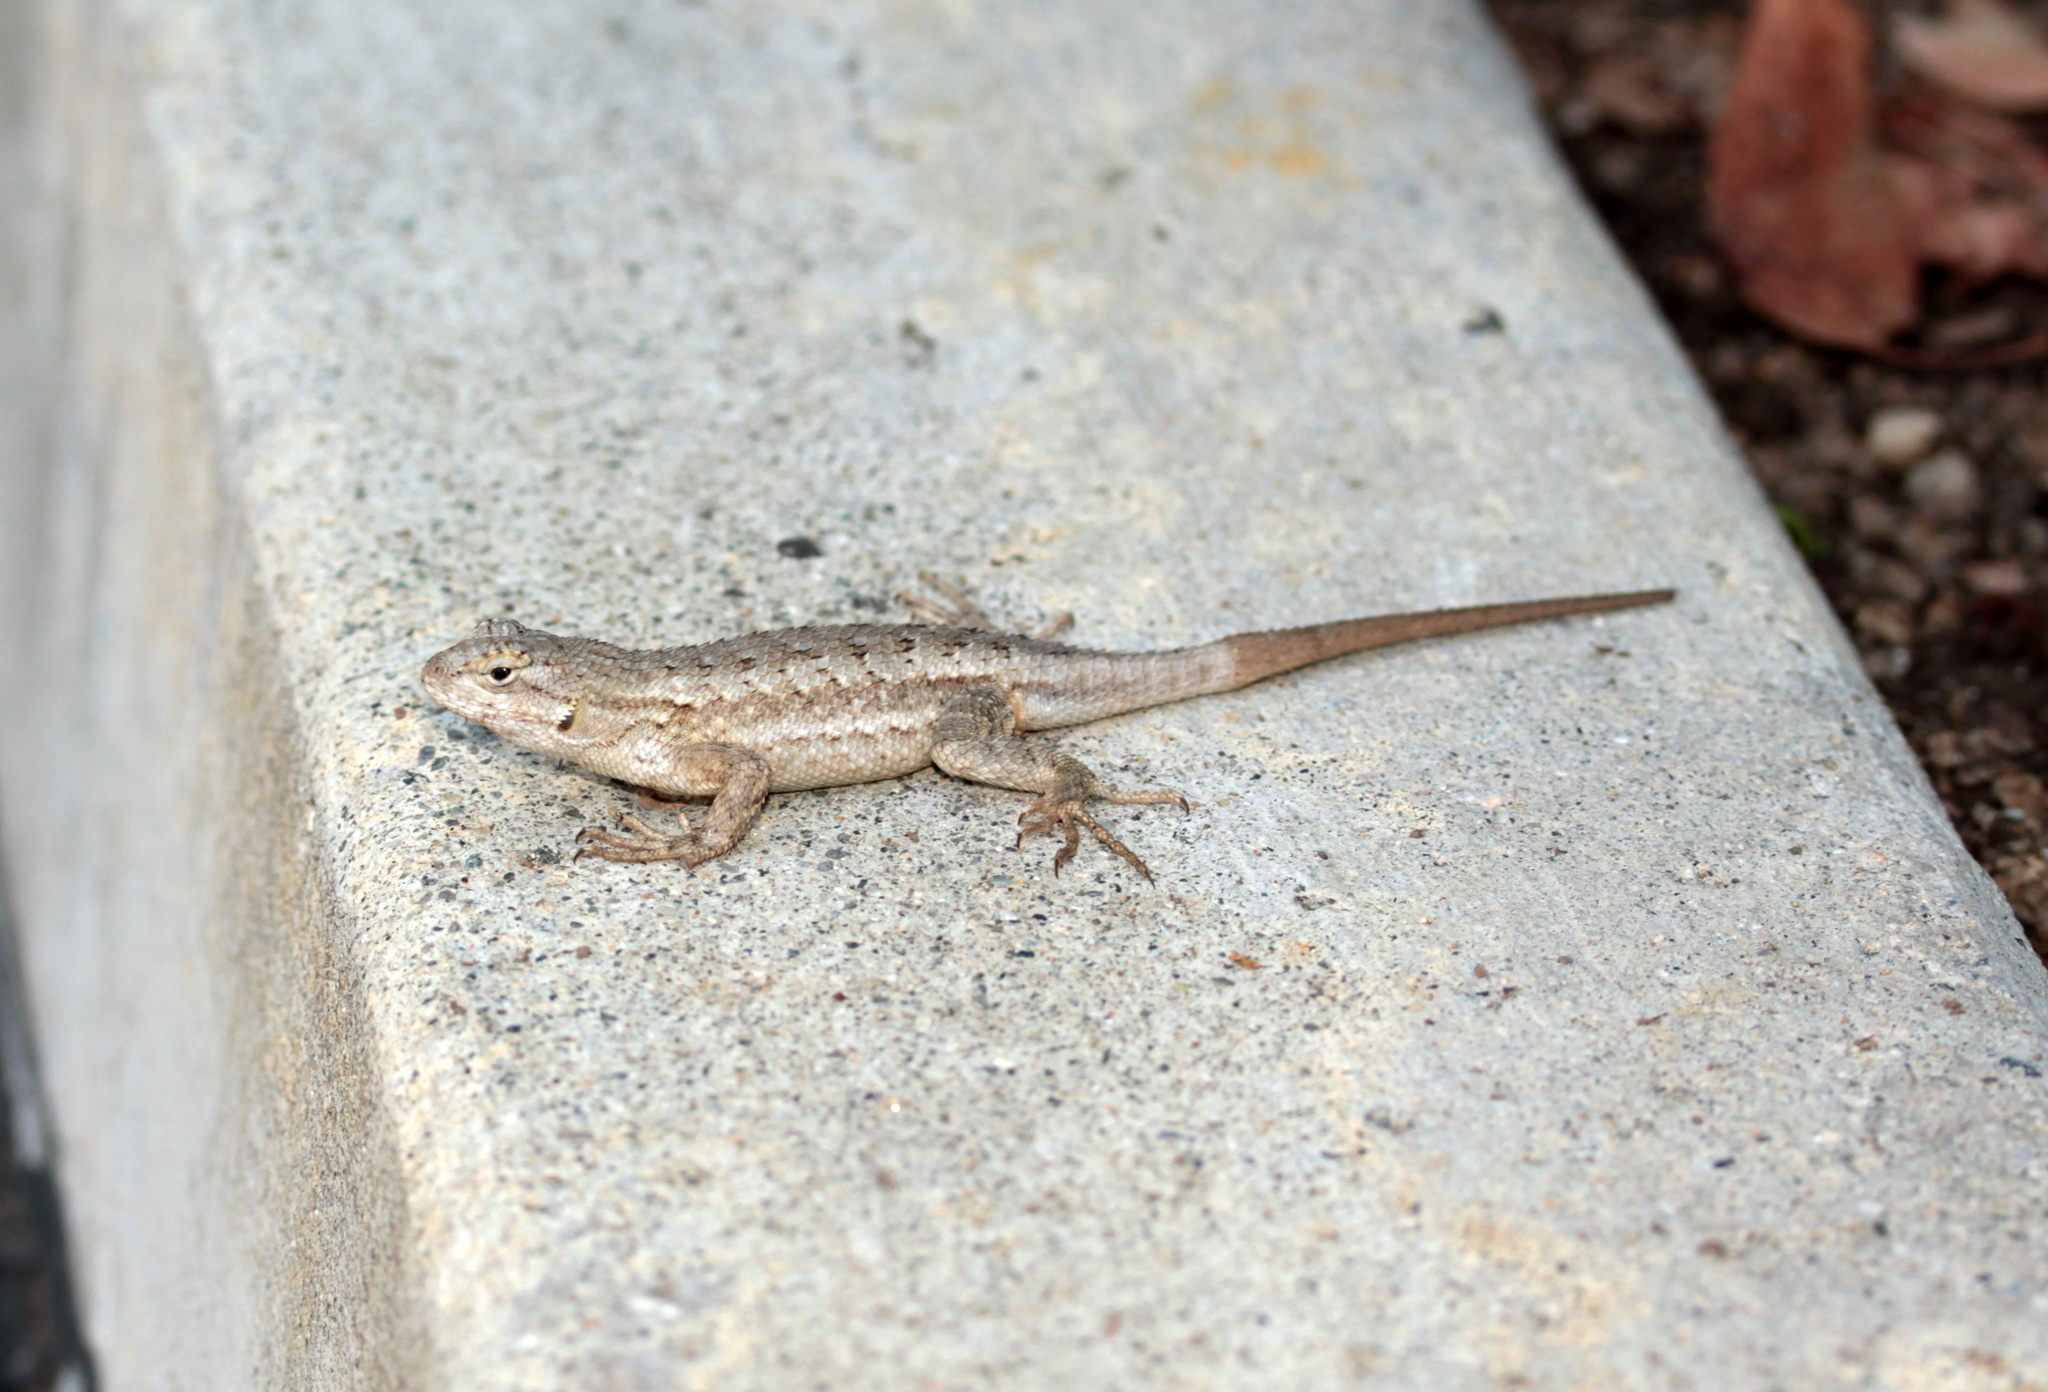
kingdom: Animalia
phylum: Chordata
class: Squamata
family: Phrynosomatidae
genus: Sceloporus
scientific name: Sceloporus occidentalis
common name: Western fence lizard
